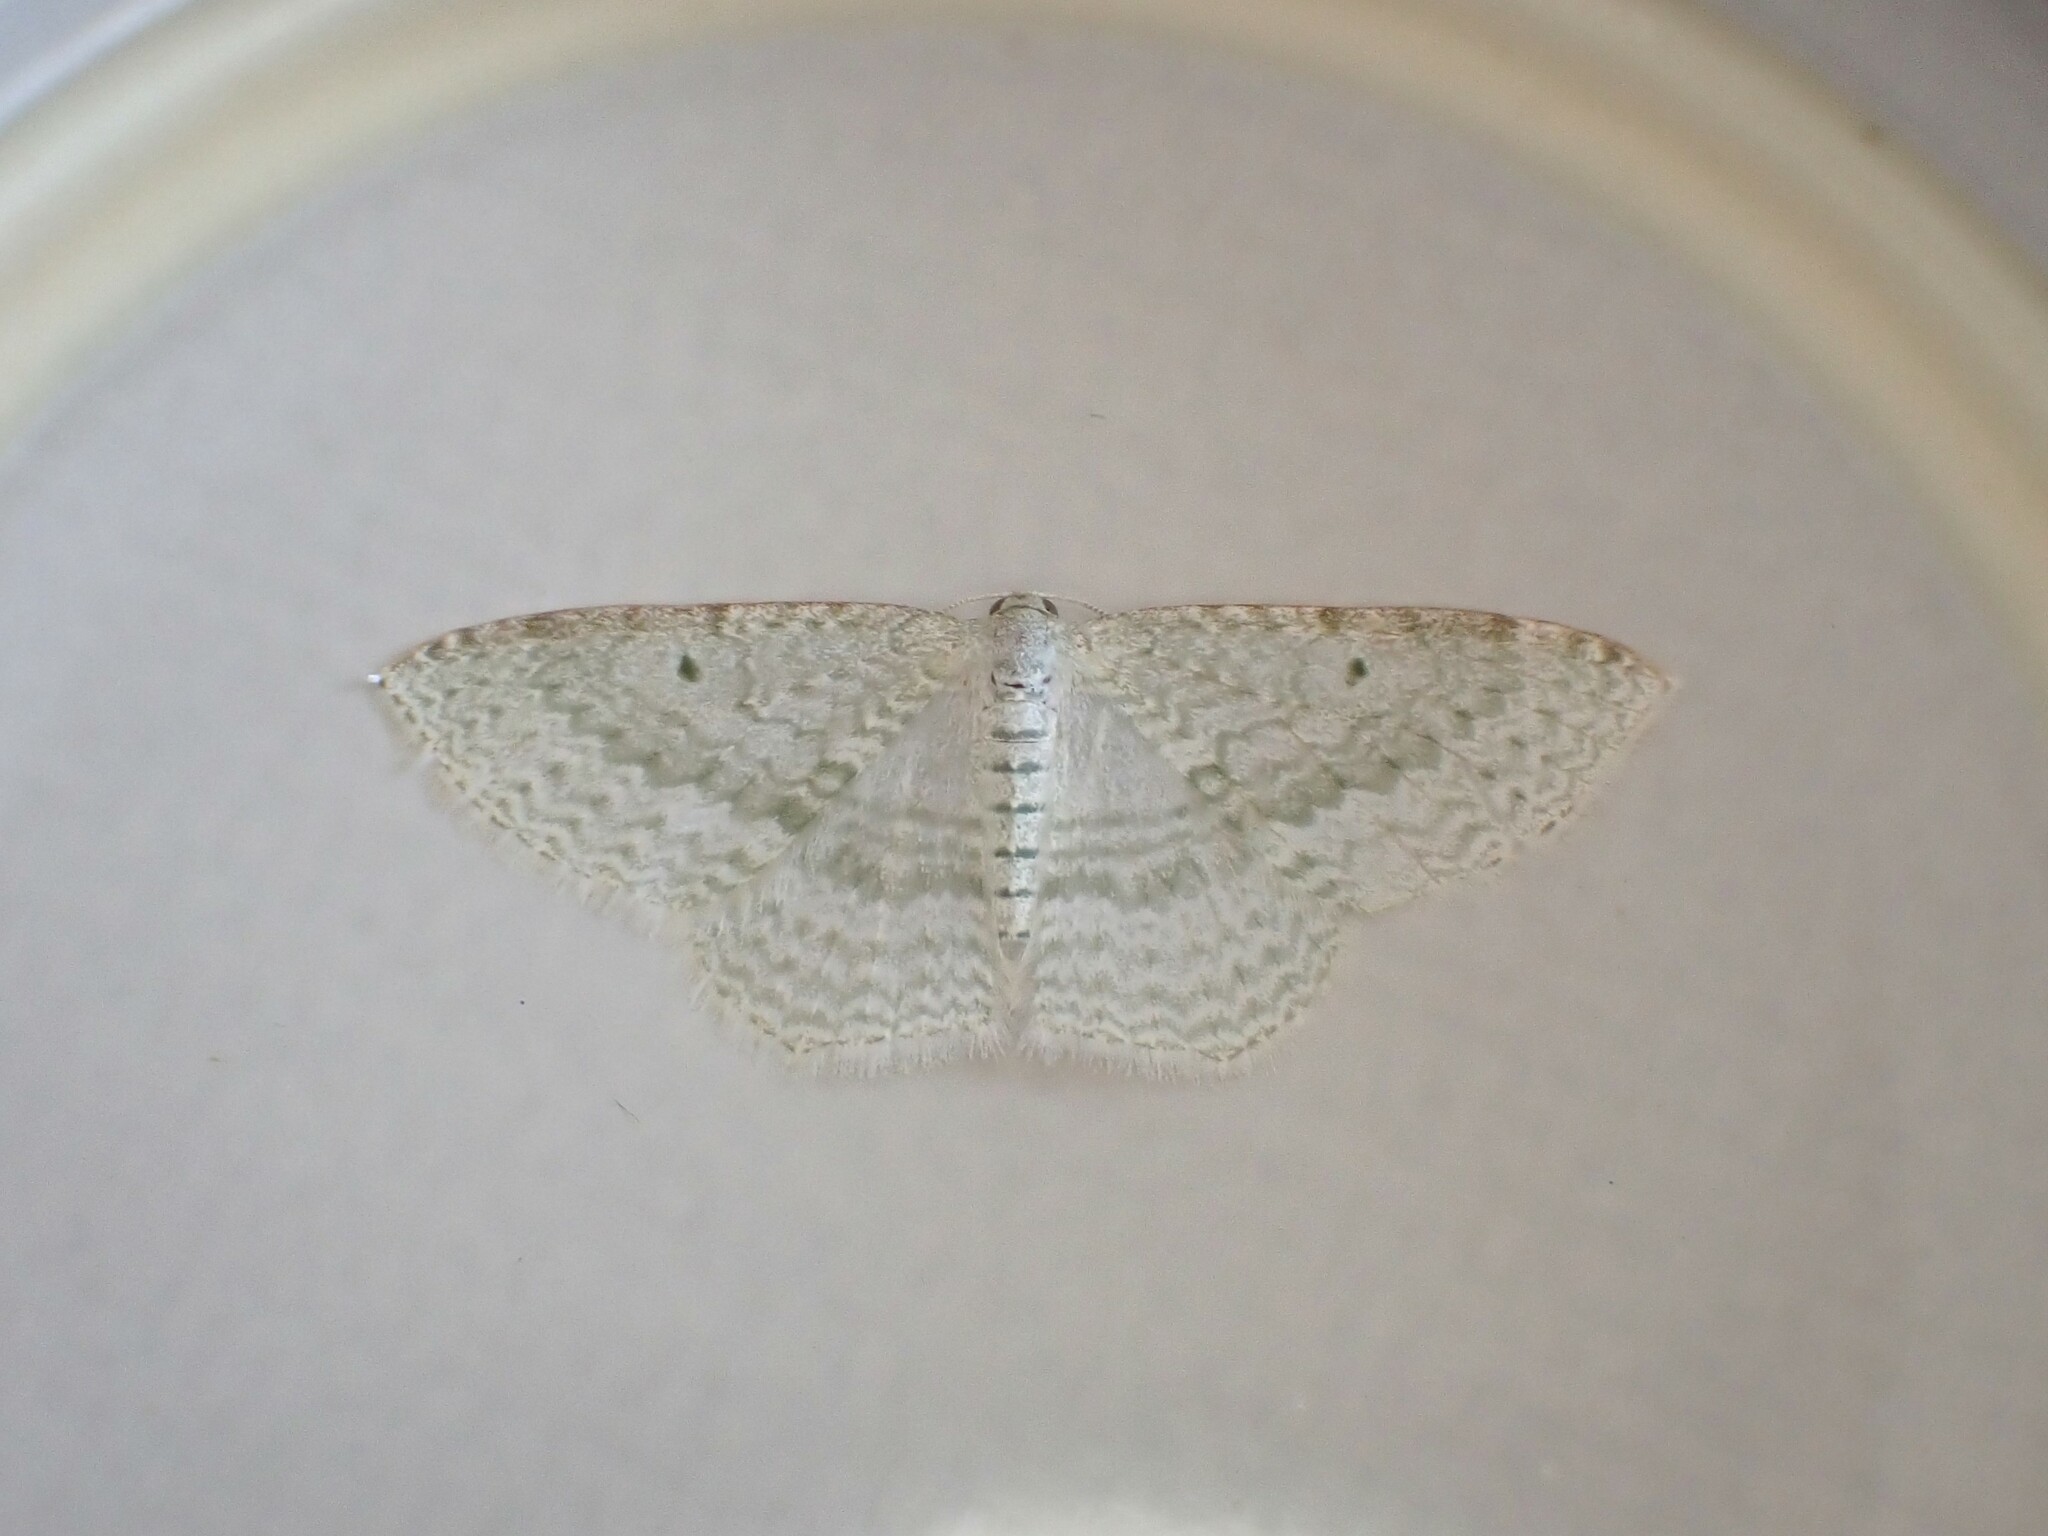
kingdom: Animalia
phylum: Arthropoda
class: Insecta
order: Lepidoptera
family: Geometridae
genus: Poecilasthena
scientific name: Poecilasthena pulchraria
